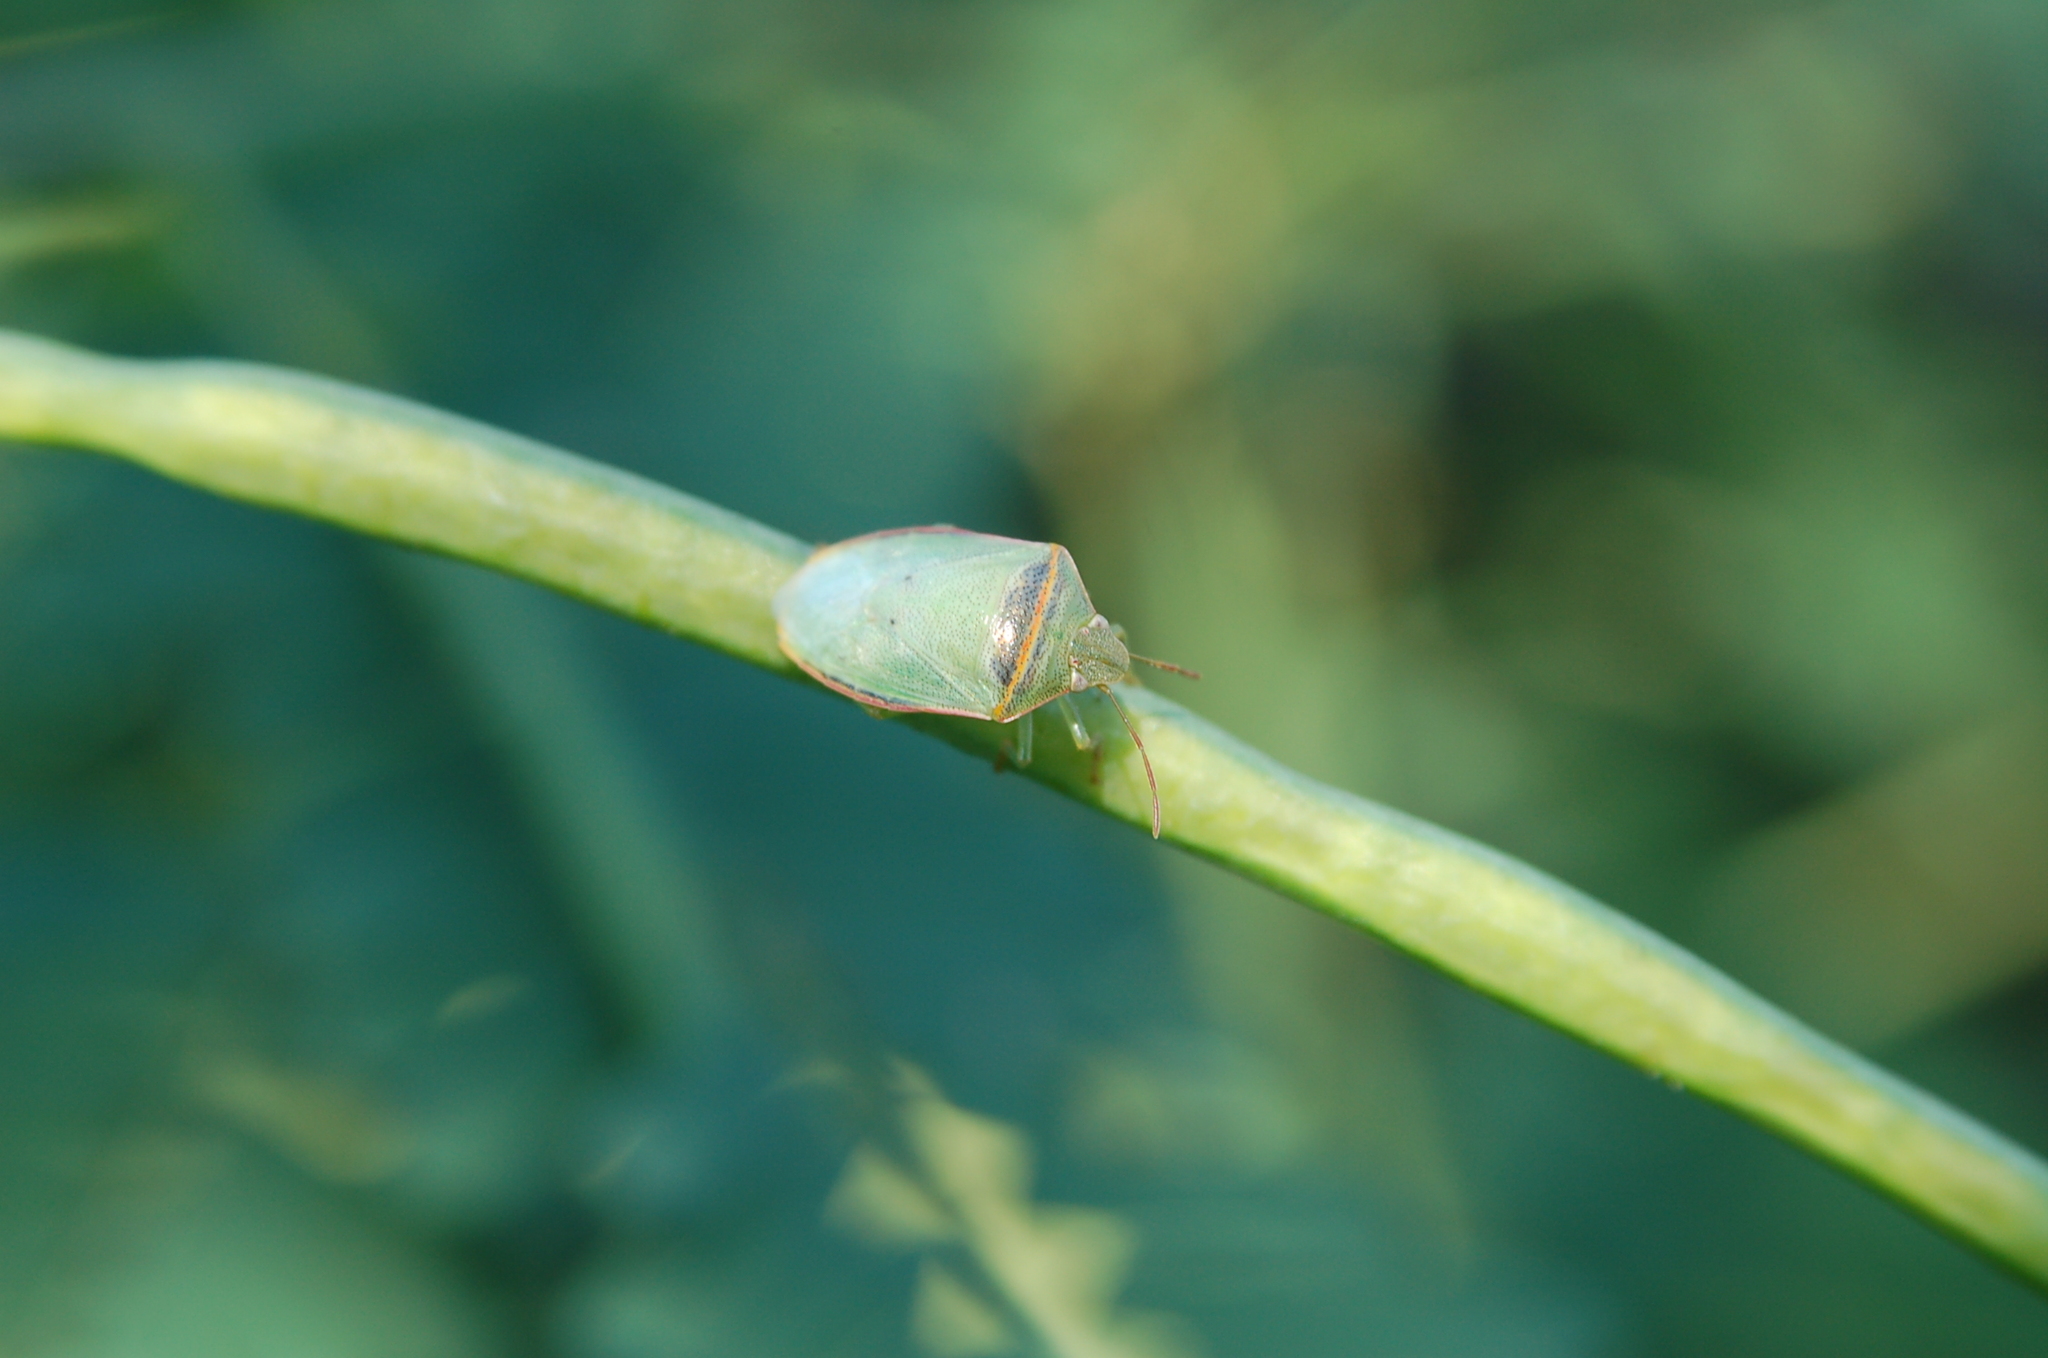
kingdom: Animalia
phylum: Arthropoda
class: Insecta
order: Hemiptera
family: Pentatomidae
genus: Piezodorus
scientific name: Piezodorus guildinii
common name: Redbanded stink bug
